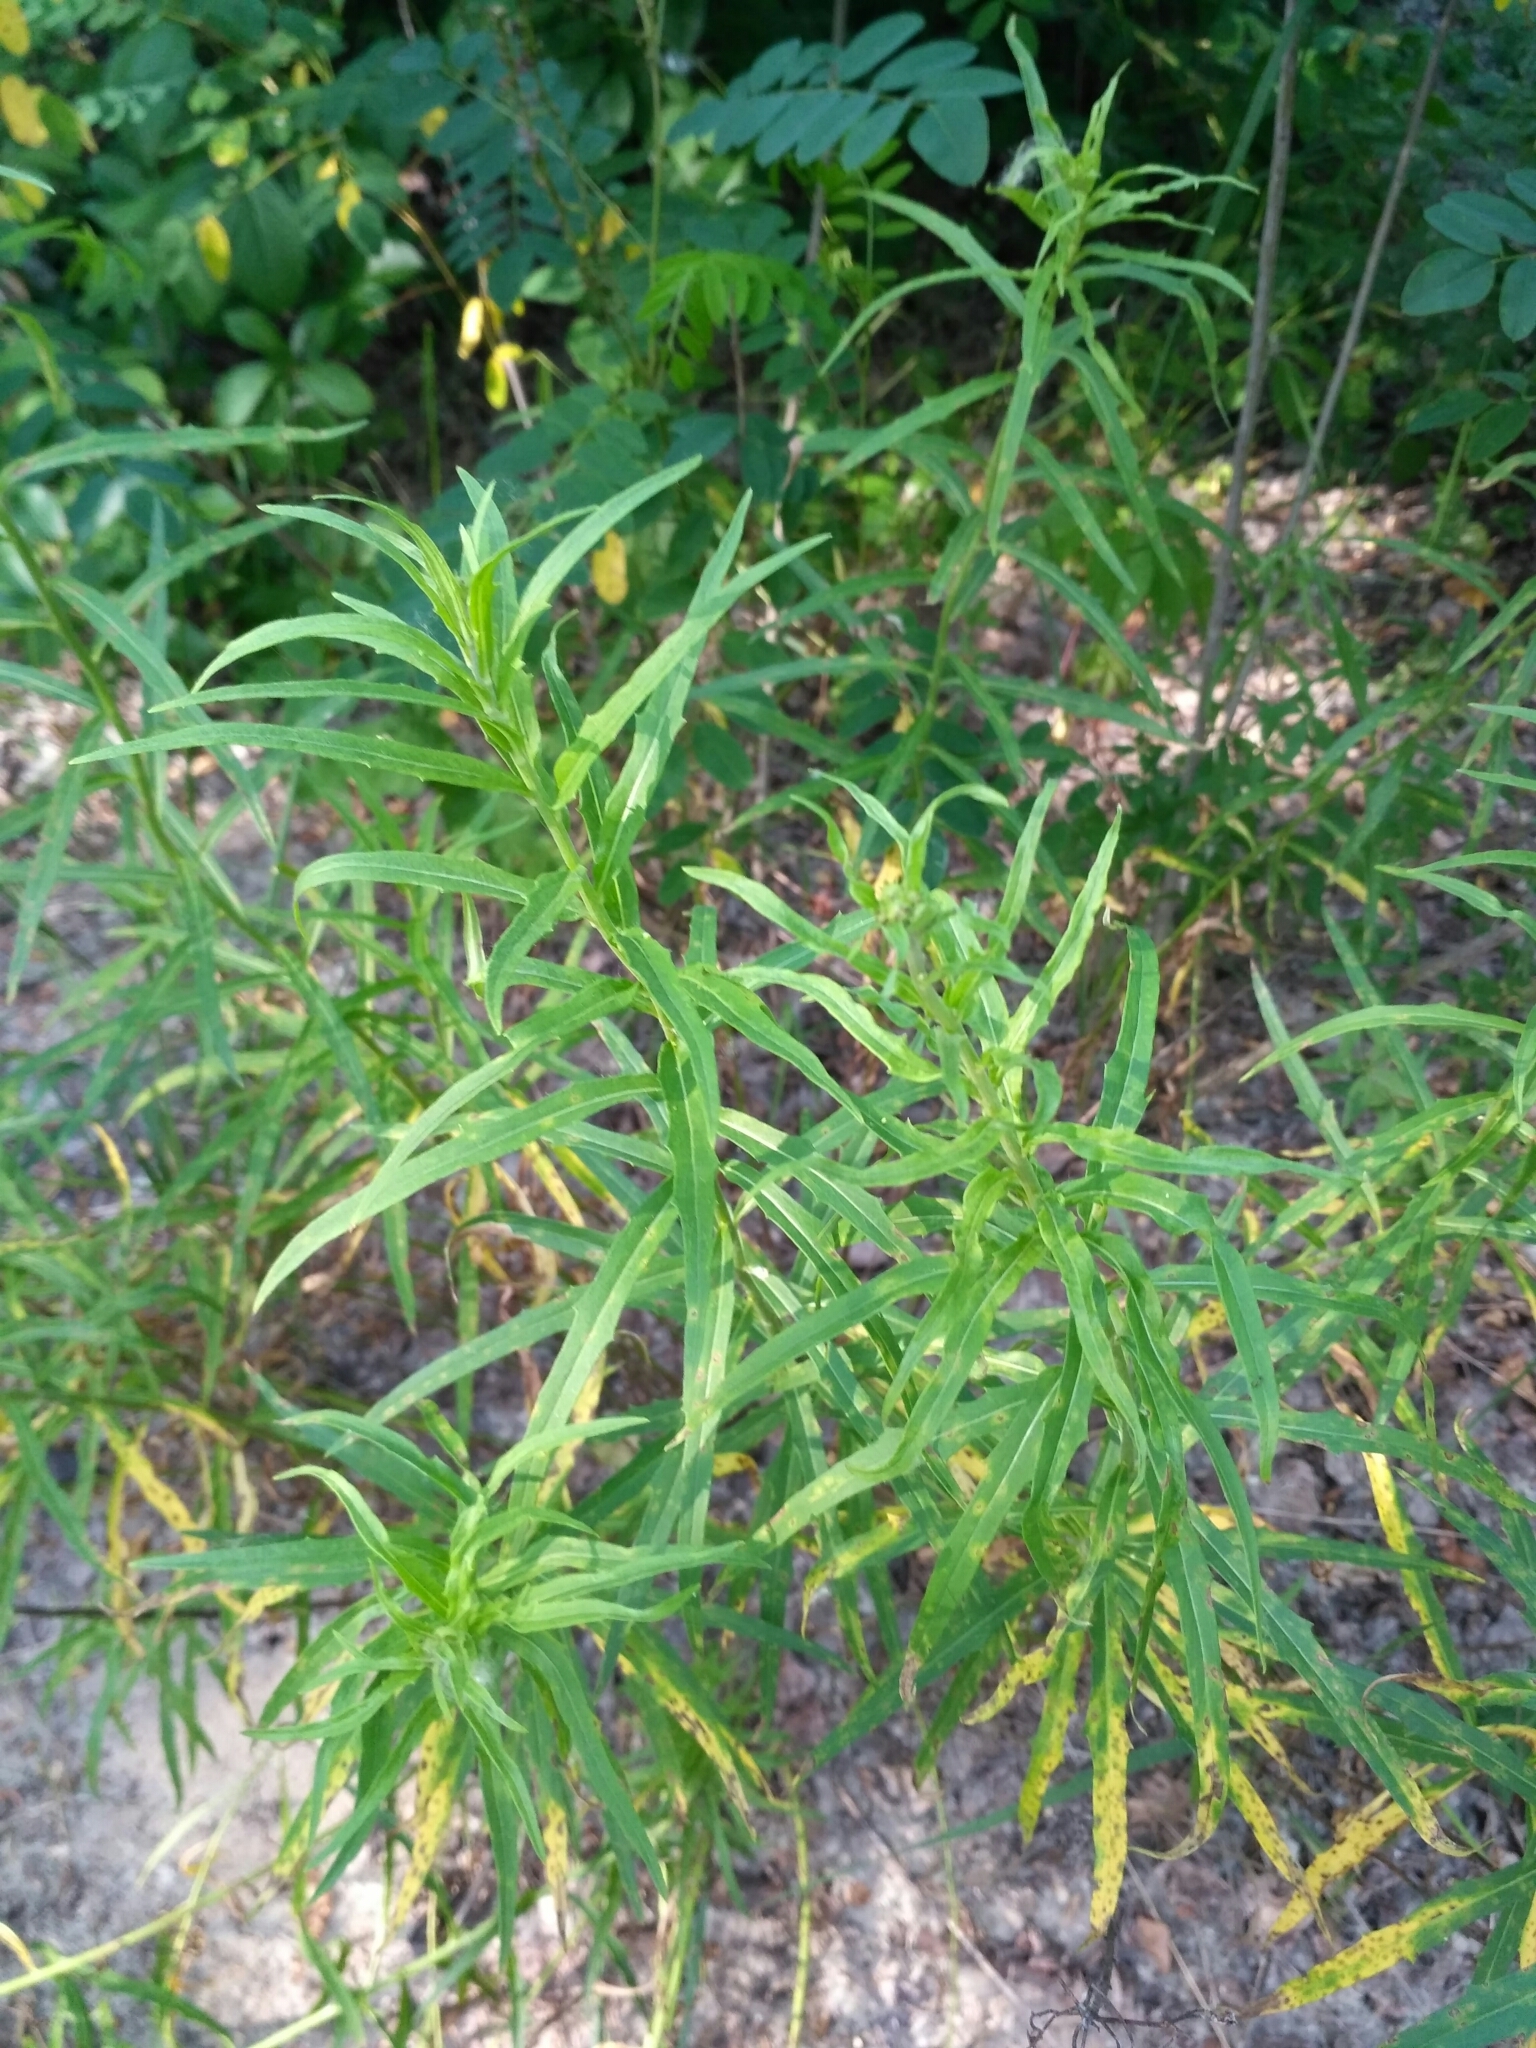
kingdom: Plantae
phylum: Tracheophyta
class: Magnoliopsida
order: Asterales
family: Asteraceae
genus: Hieracium
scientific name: Hieracium umbellatum
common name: Northern hawkweed
